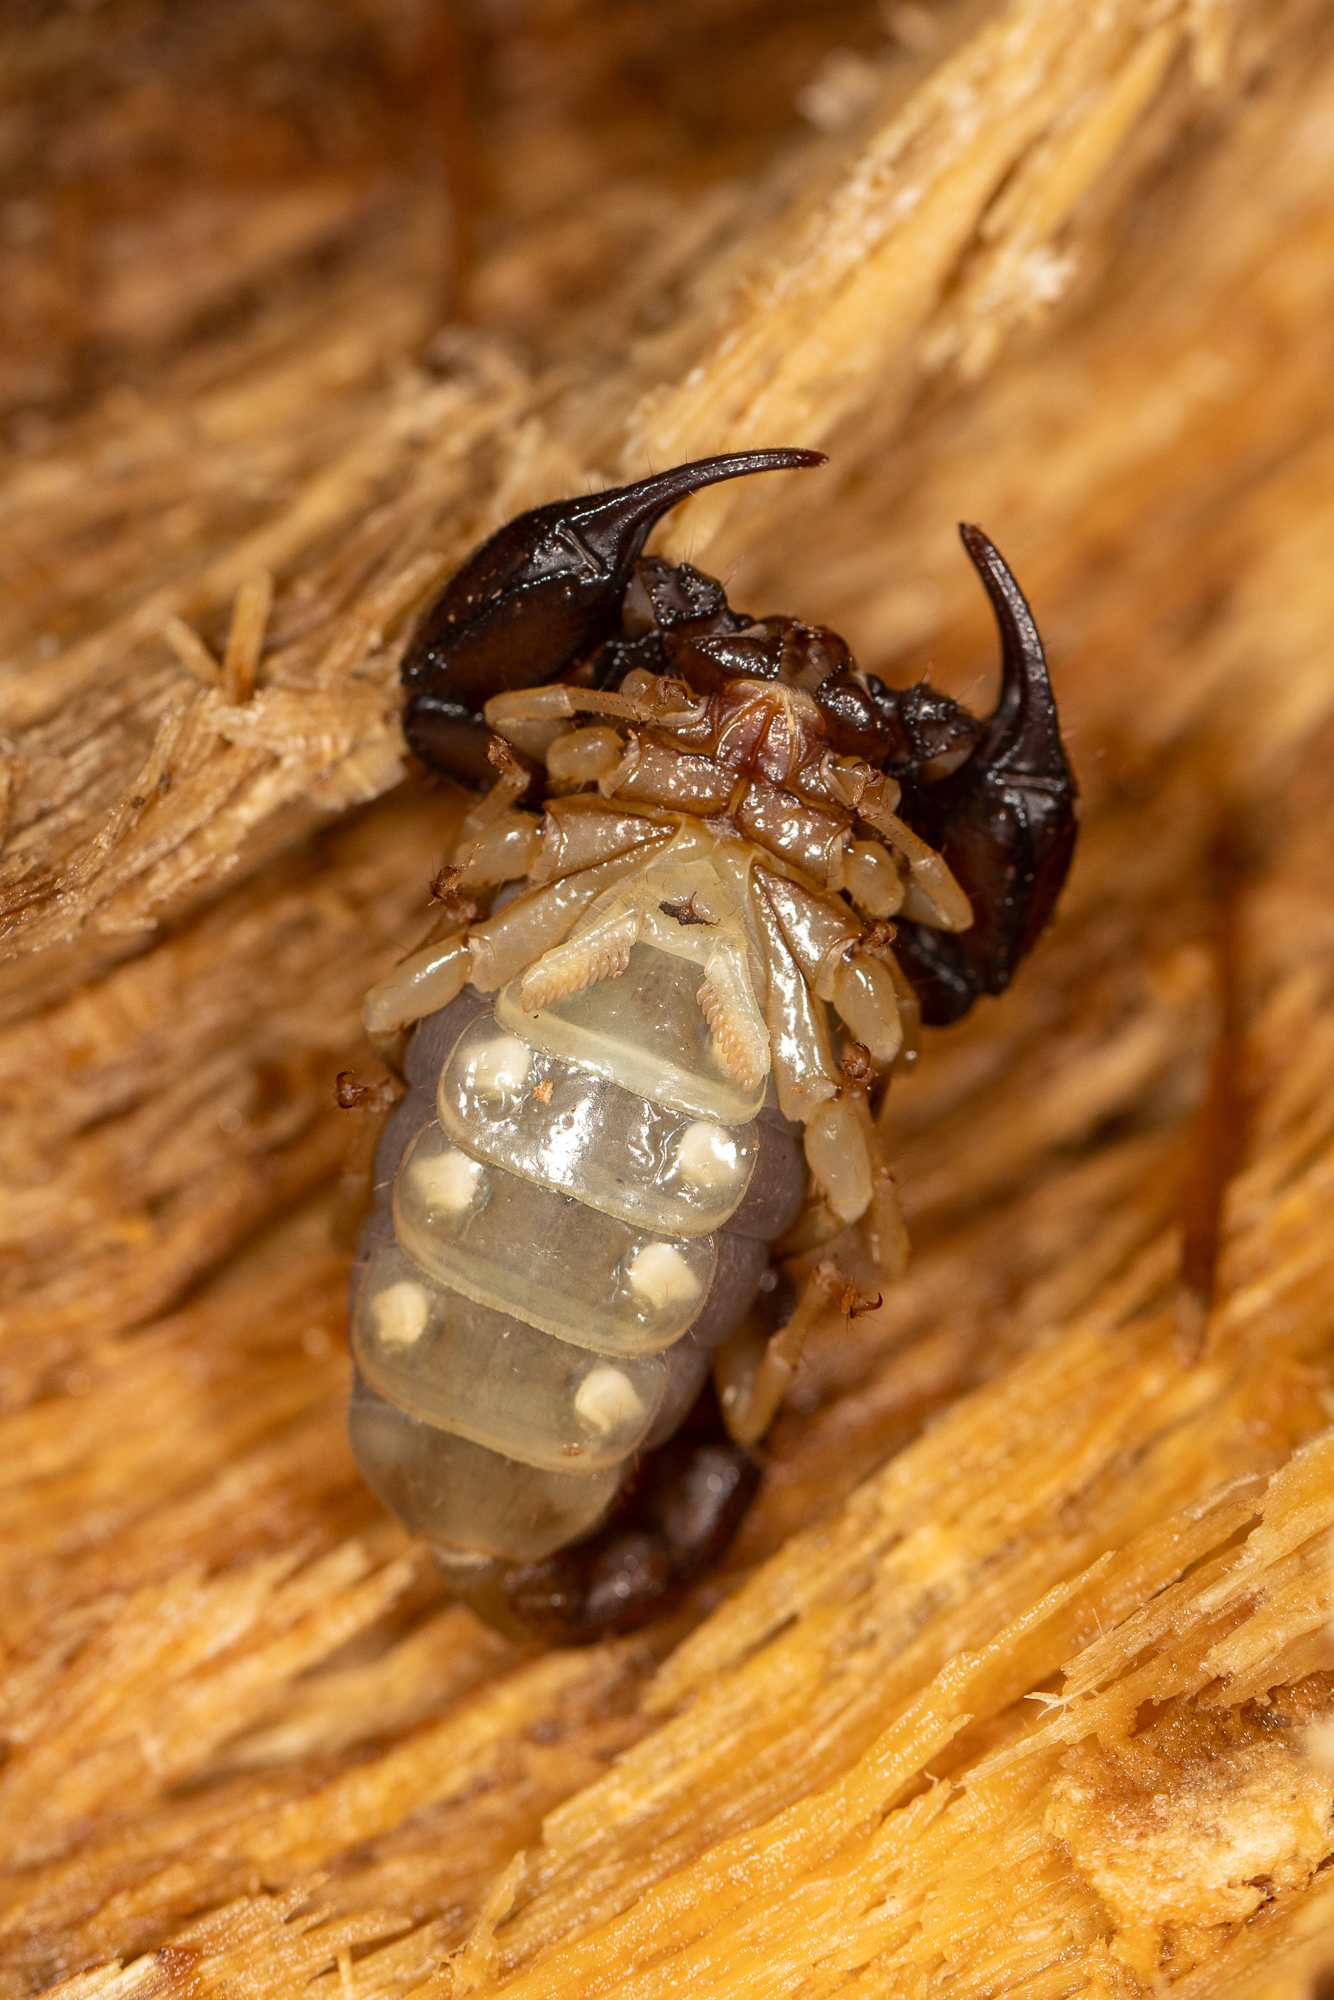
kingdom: Animalia
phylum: Arthropoda
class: Arachnida
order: Scorpiones
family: Chactidae
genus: Uroctonus
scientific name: Uroctonus mordax
